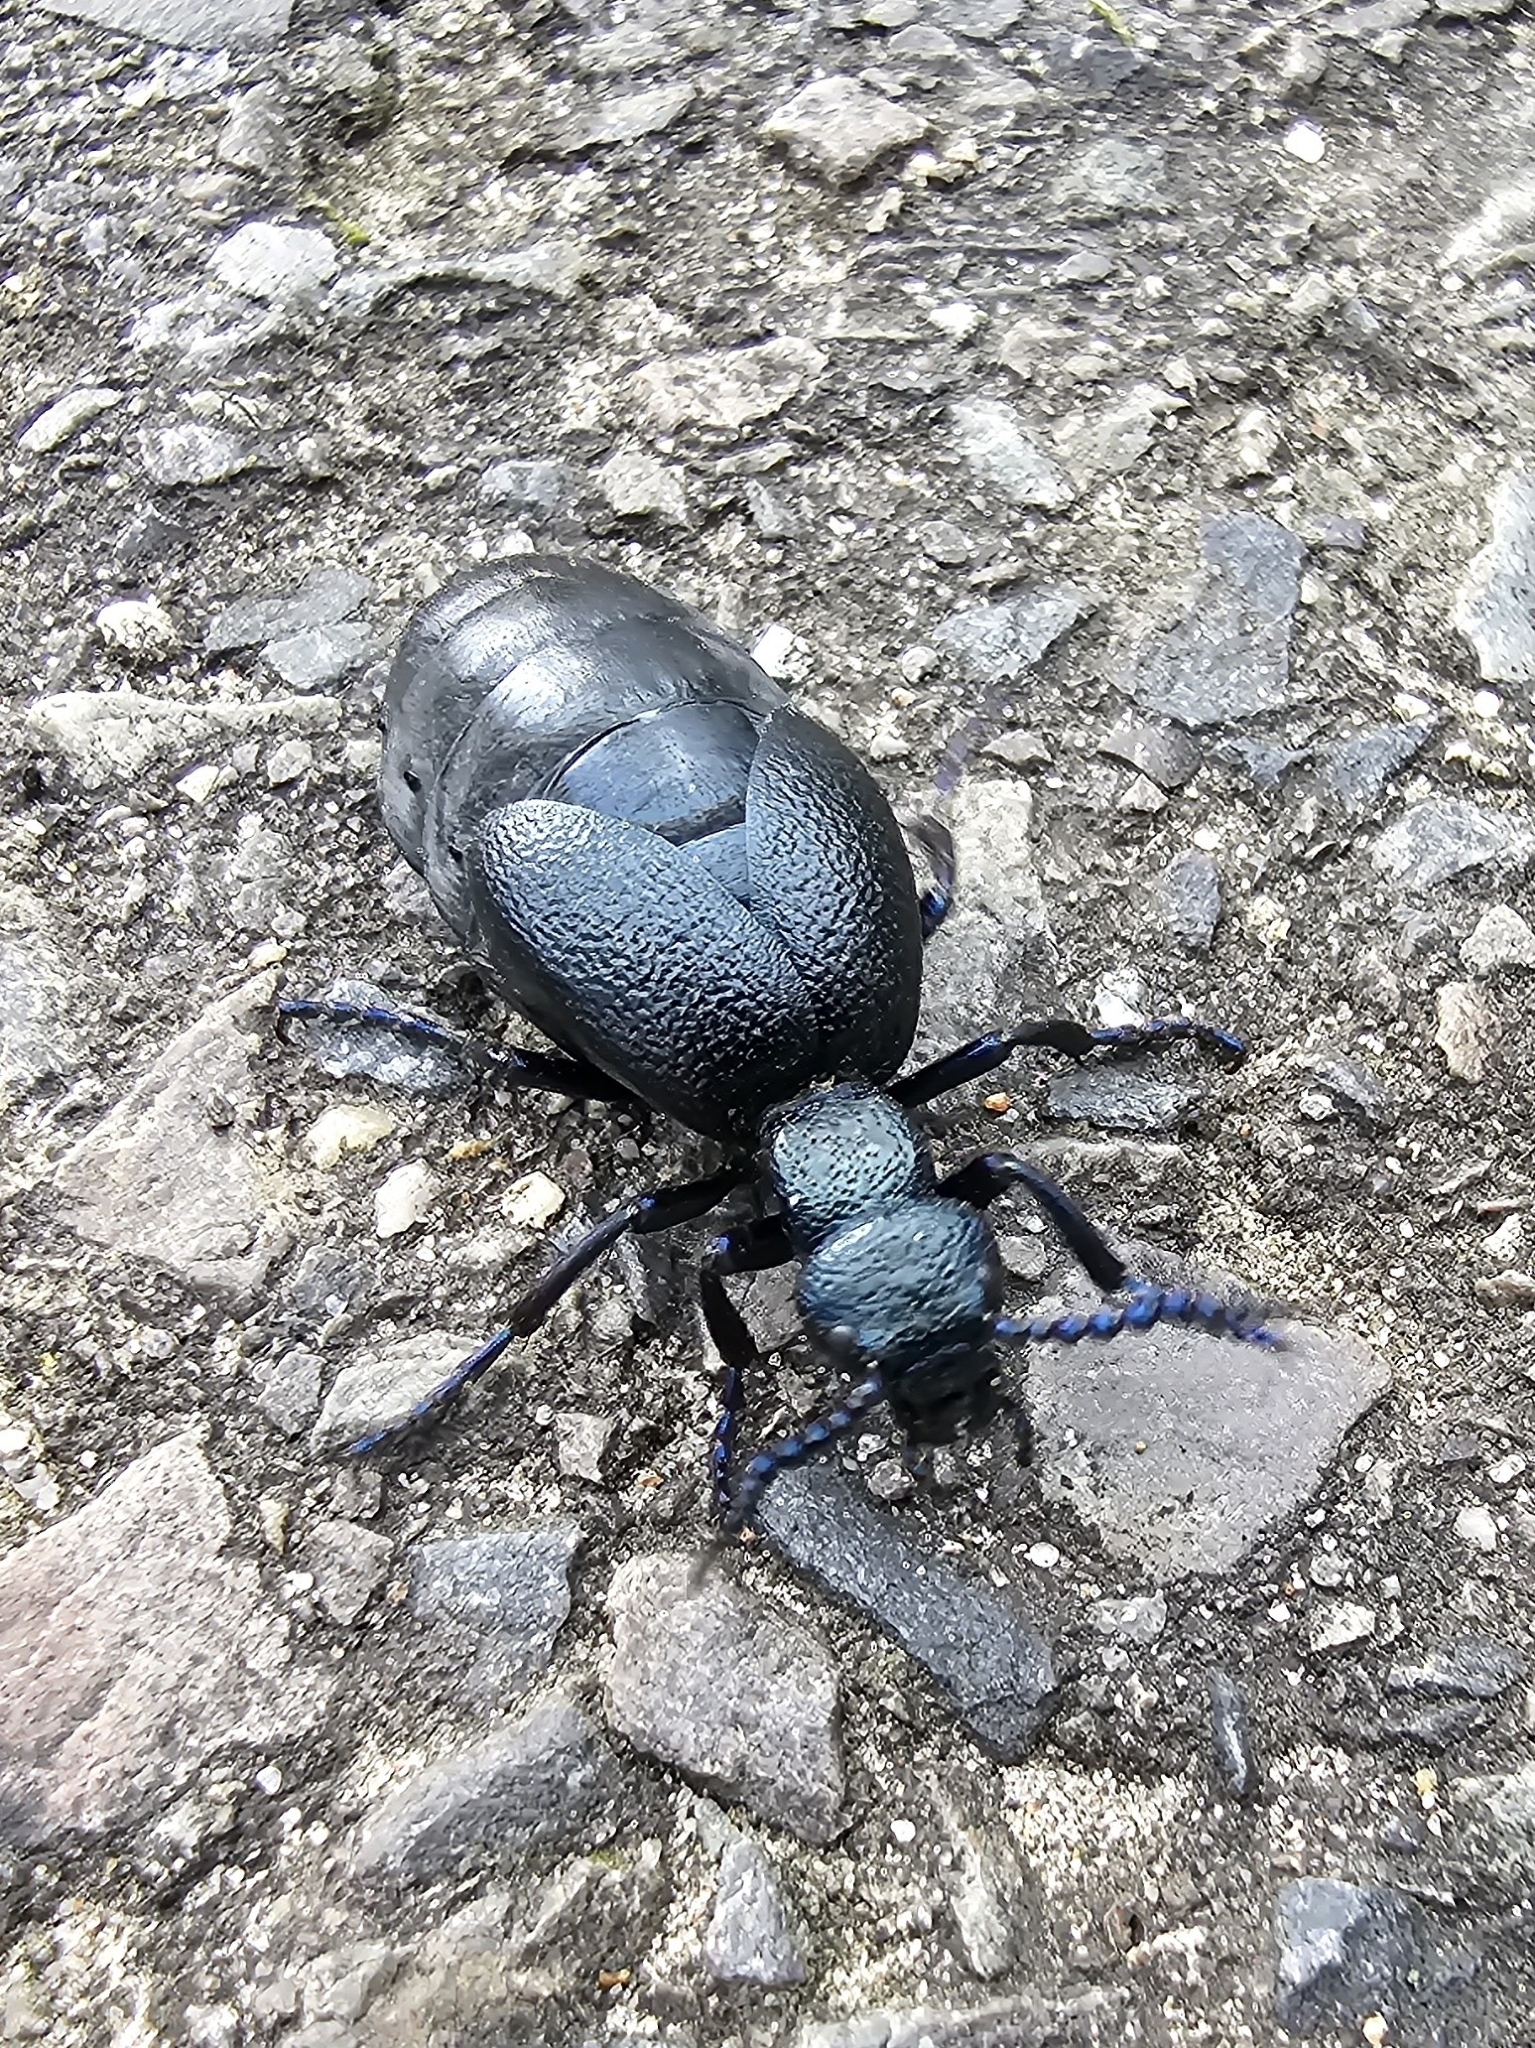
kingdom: Animalia
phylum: Arthropoda
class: Insecta
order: Coleoptera
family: Meloidae
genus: Meloe
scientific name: Meloe proscarabaeus
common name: Black oil-beetle
